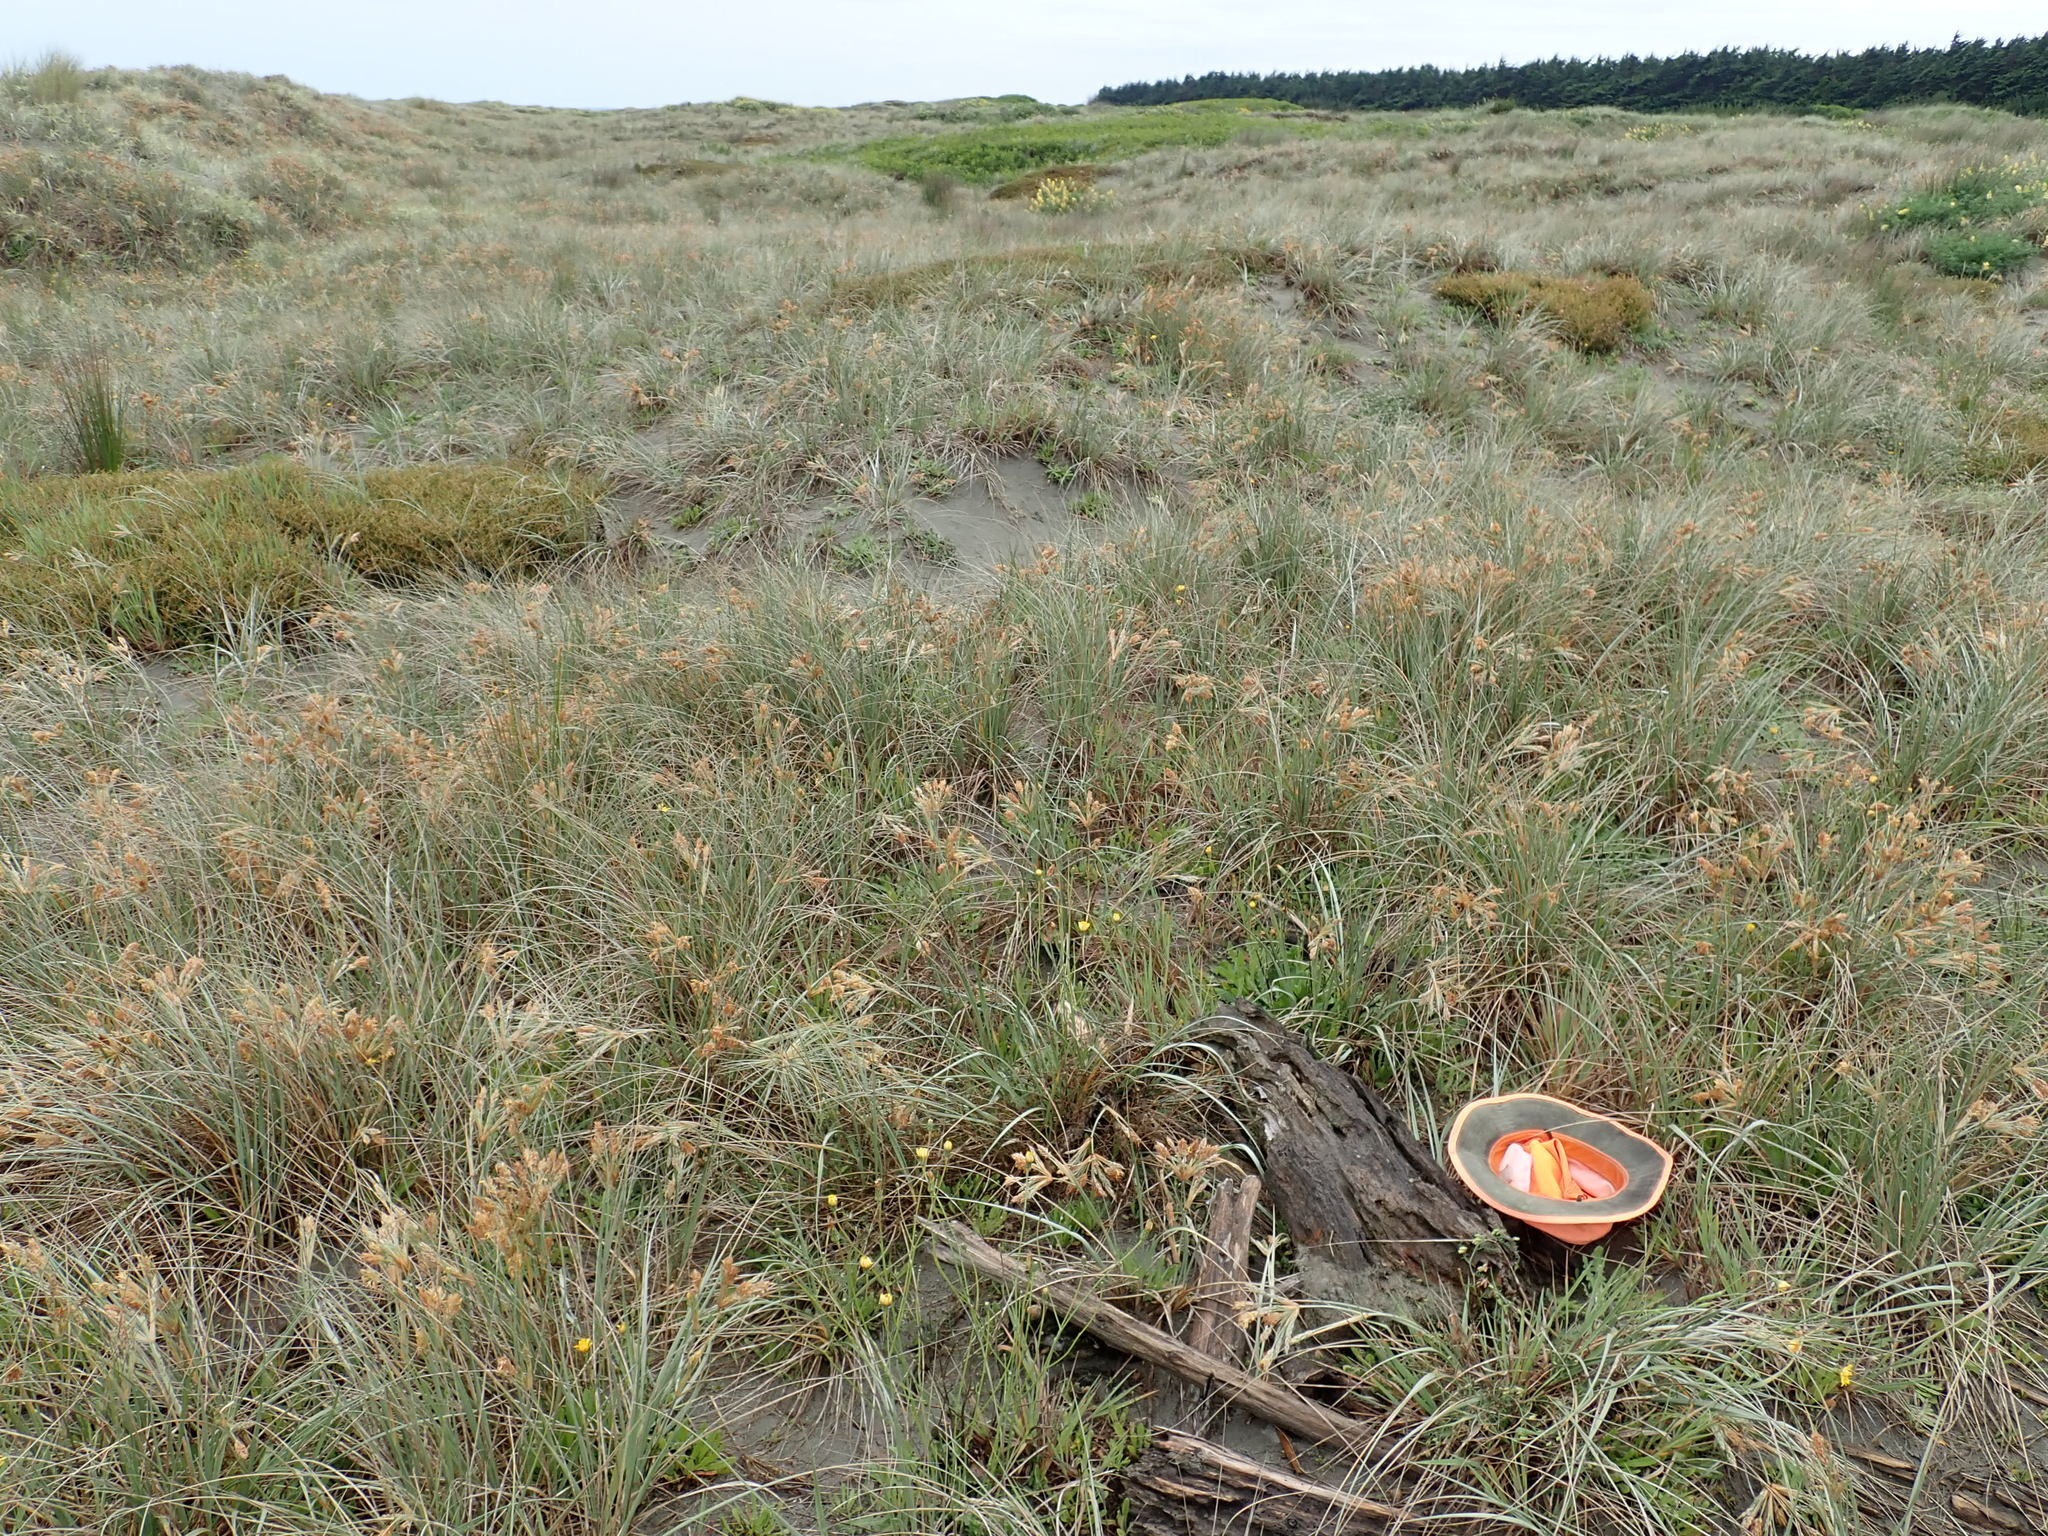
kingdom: Animalia
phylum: Arthropoda
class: Malacostraca
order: Isopoda
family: Porcellionidae
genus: Porcellio
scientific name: Porcellio scaber
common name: Common rough woodlouse
